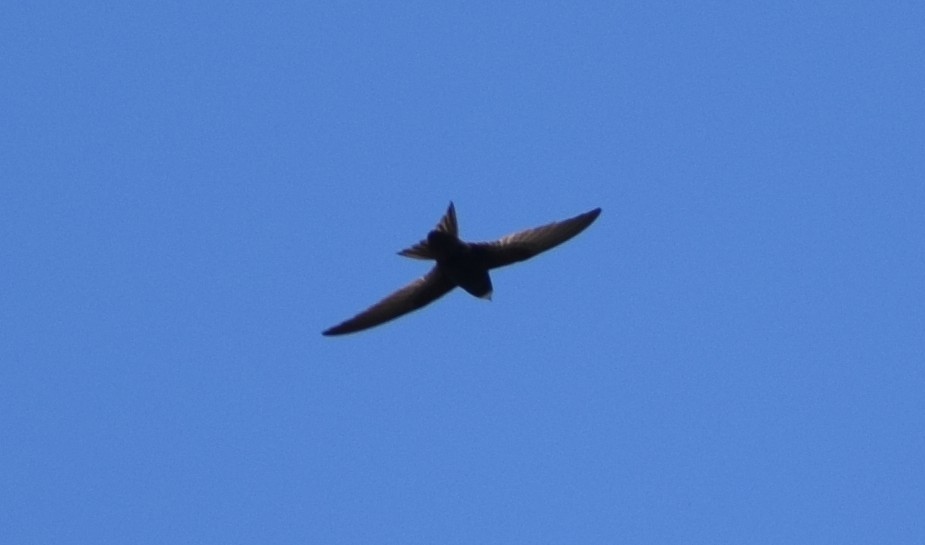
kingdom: Animalia
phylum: Chordata
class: Aves
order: Apodiformes
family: Apodidae
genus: Apus
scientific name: Apus apus
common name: Common swift
